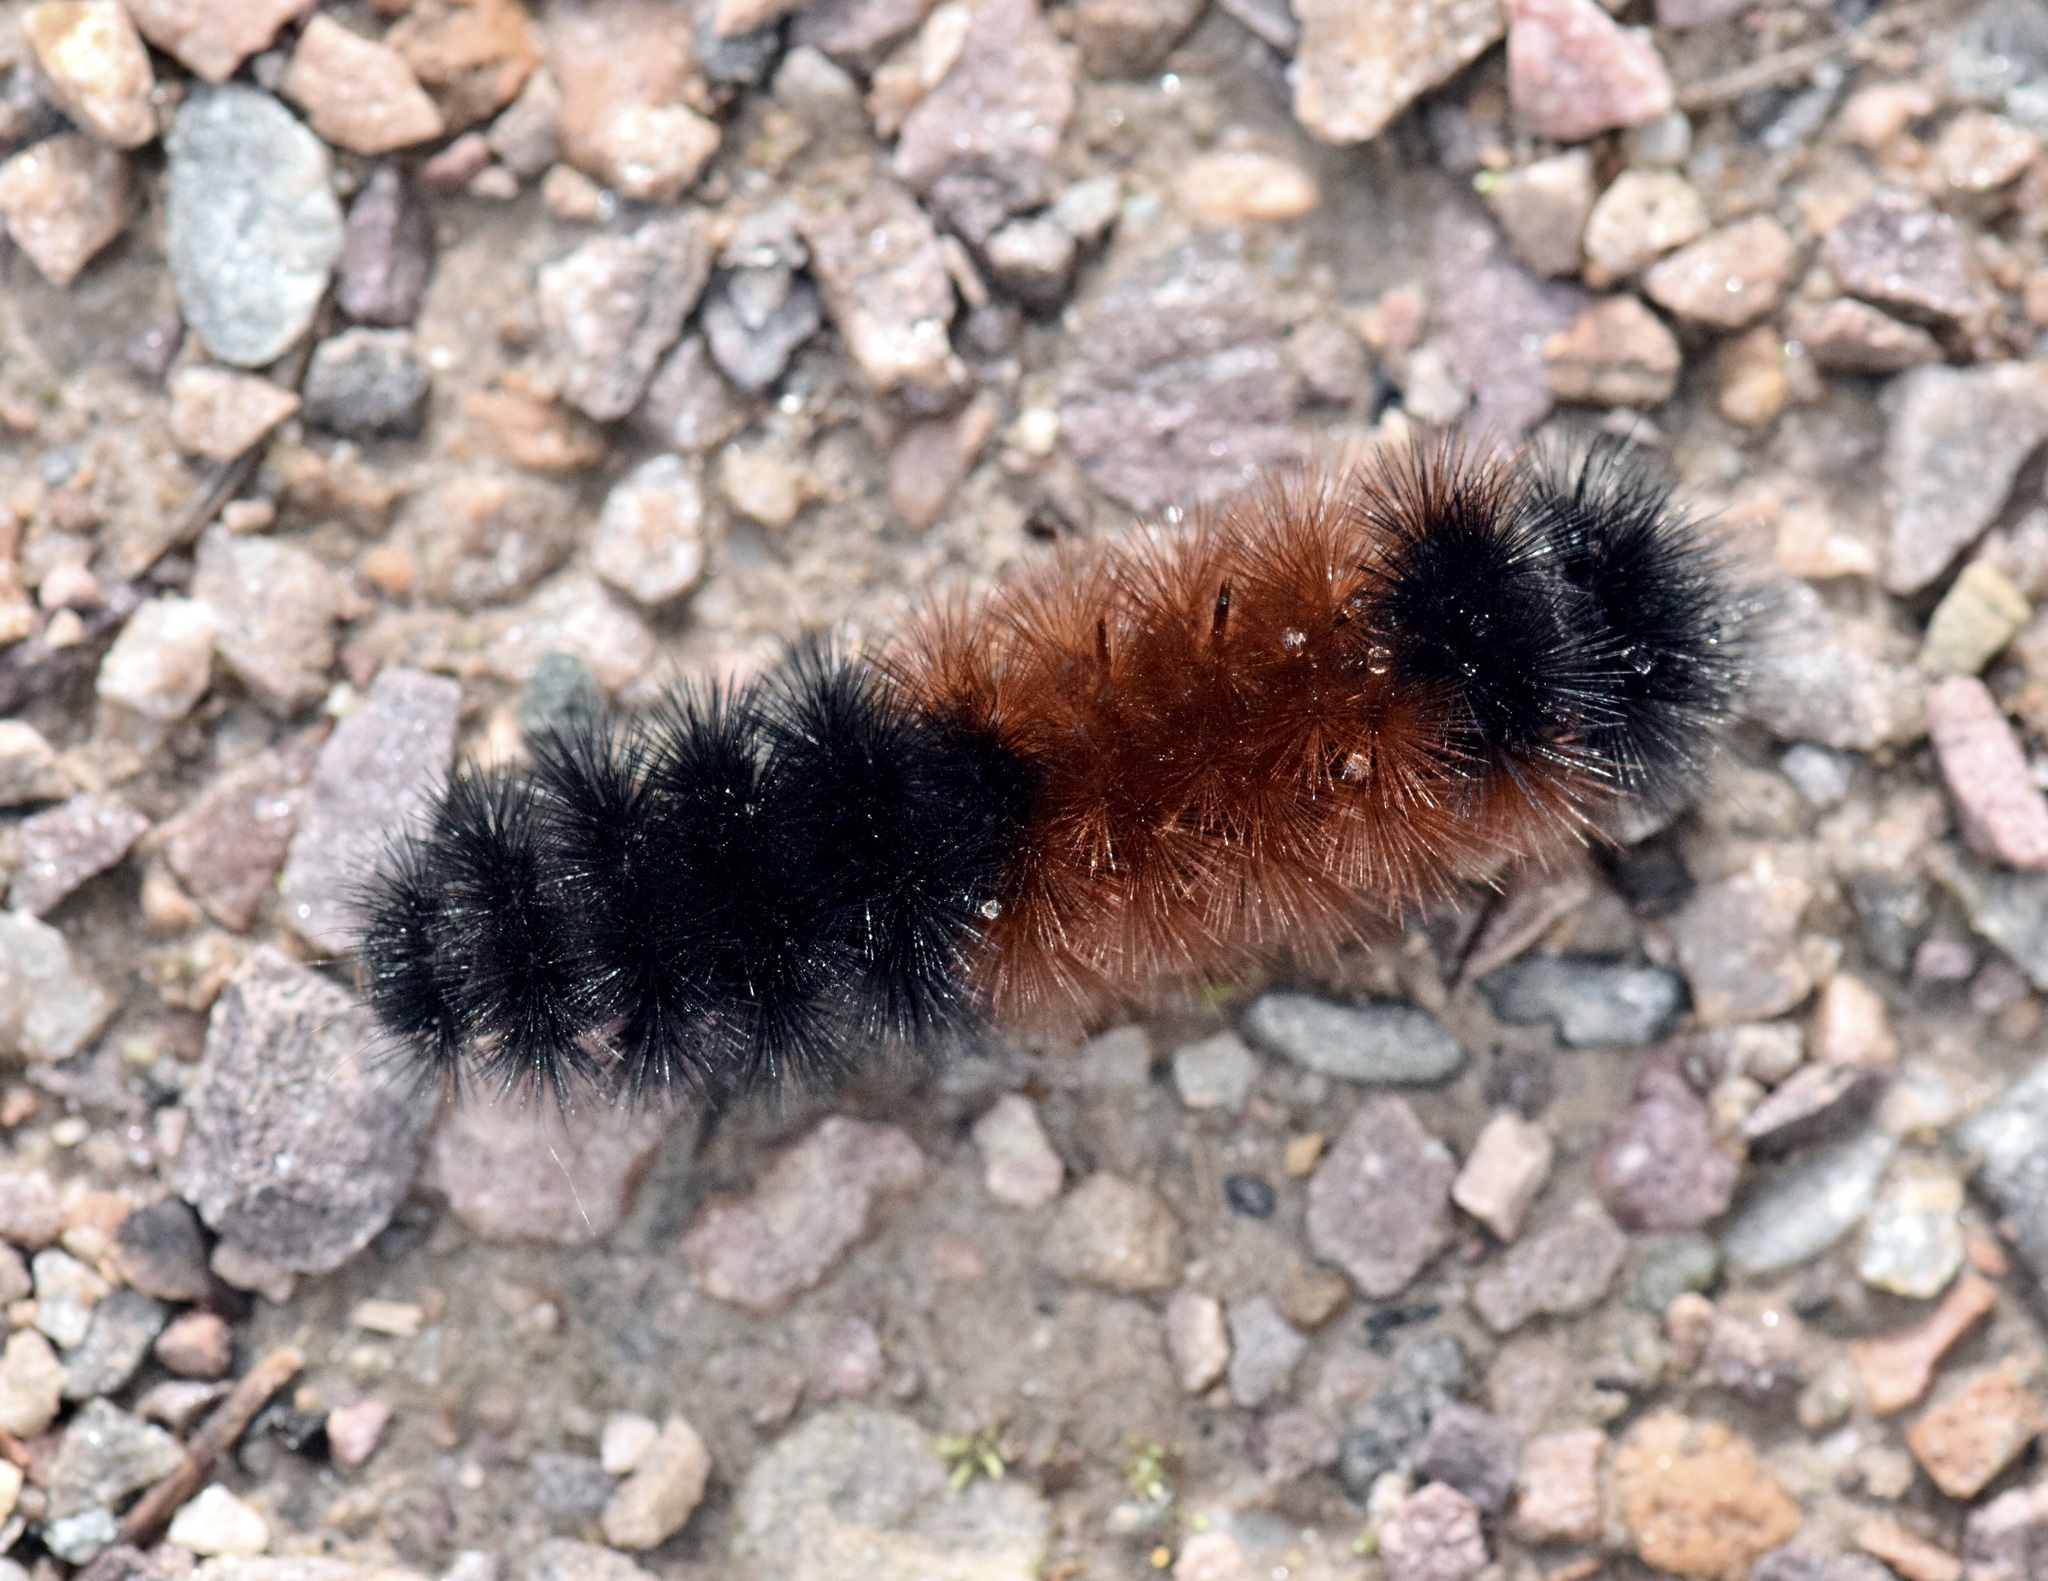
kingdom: Animalia
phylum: Arthropoda
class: Insecta
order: Lepidoptera
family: Erebidae
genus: Pyrrharctia
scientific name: Pyrrharctia isabella
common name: Isabella tiger moth
